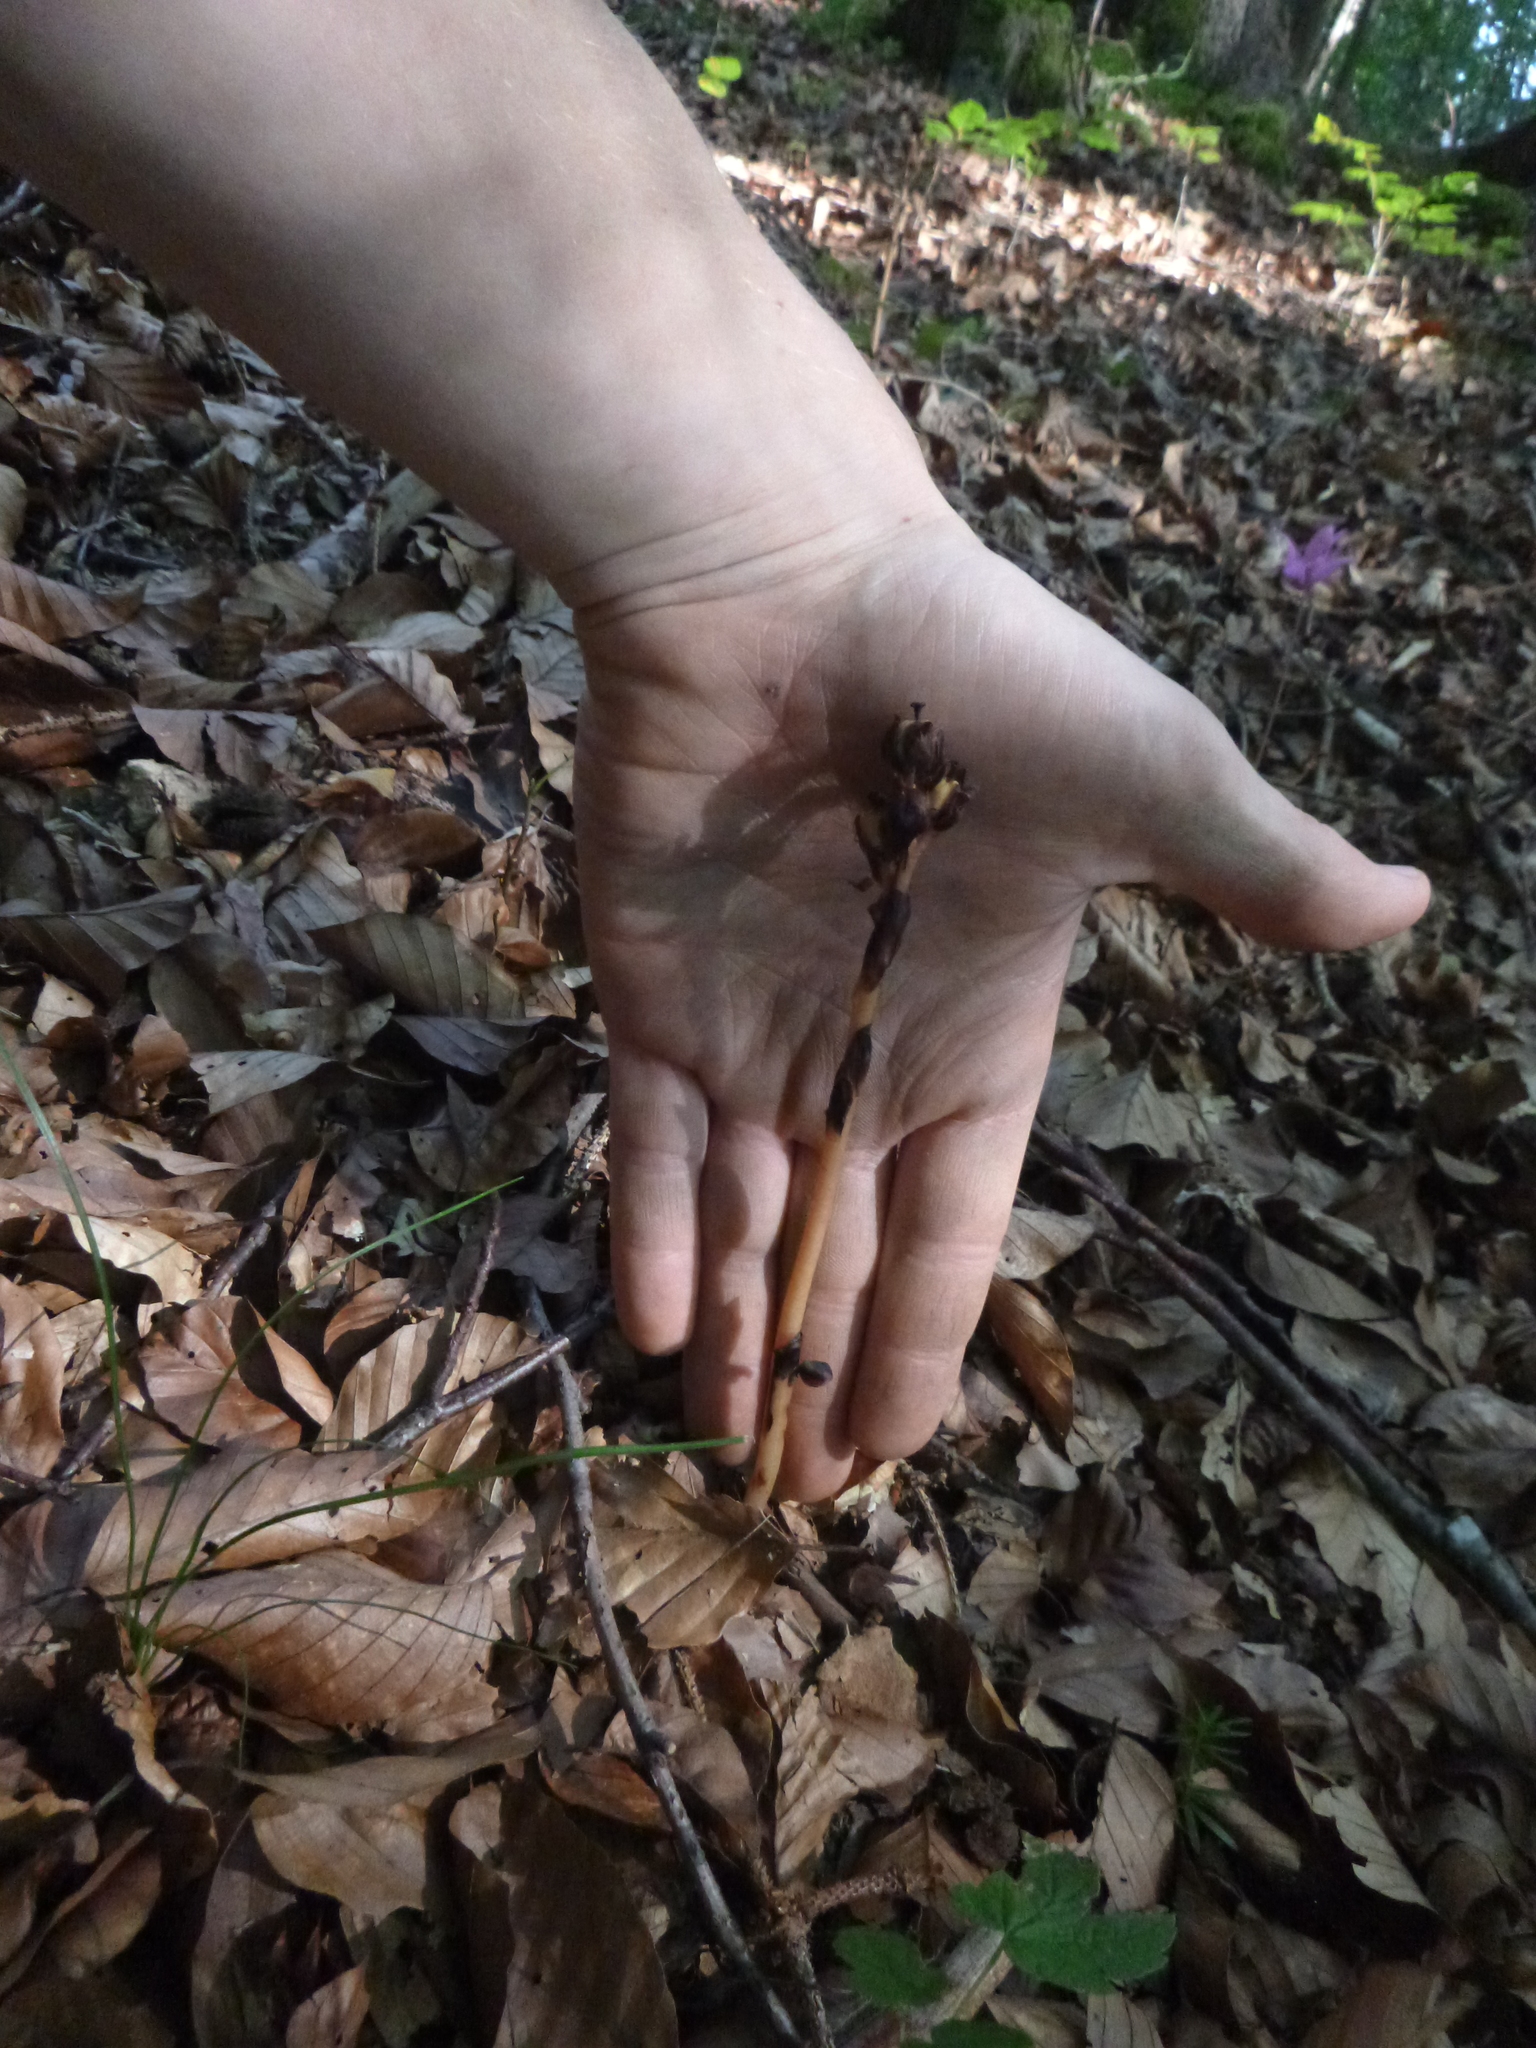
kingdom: Plantae
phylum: Tracheophyta
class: Magnoliopsida
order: Ericales
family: Ericaceae
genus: Hypopitys
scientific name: Hypopitys hypophegea
